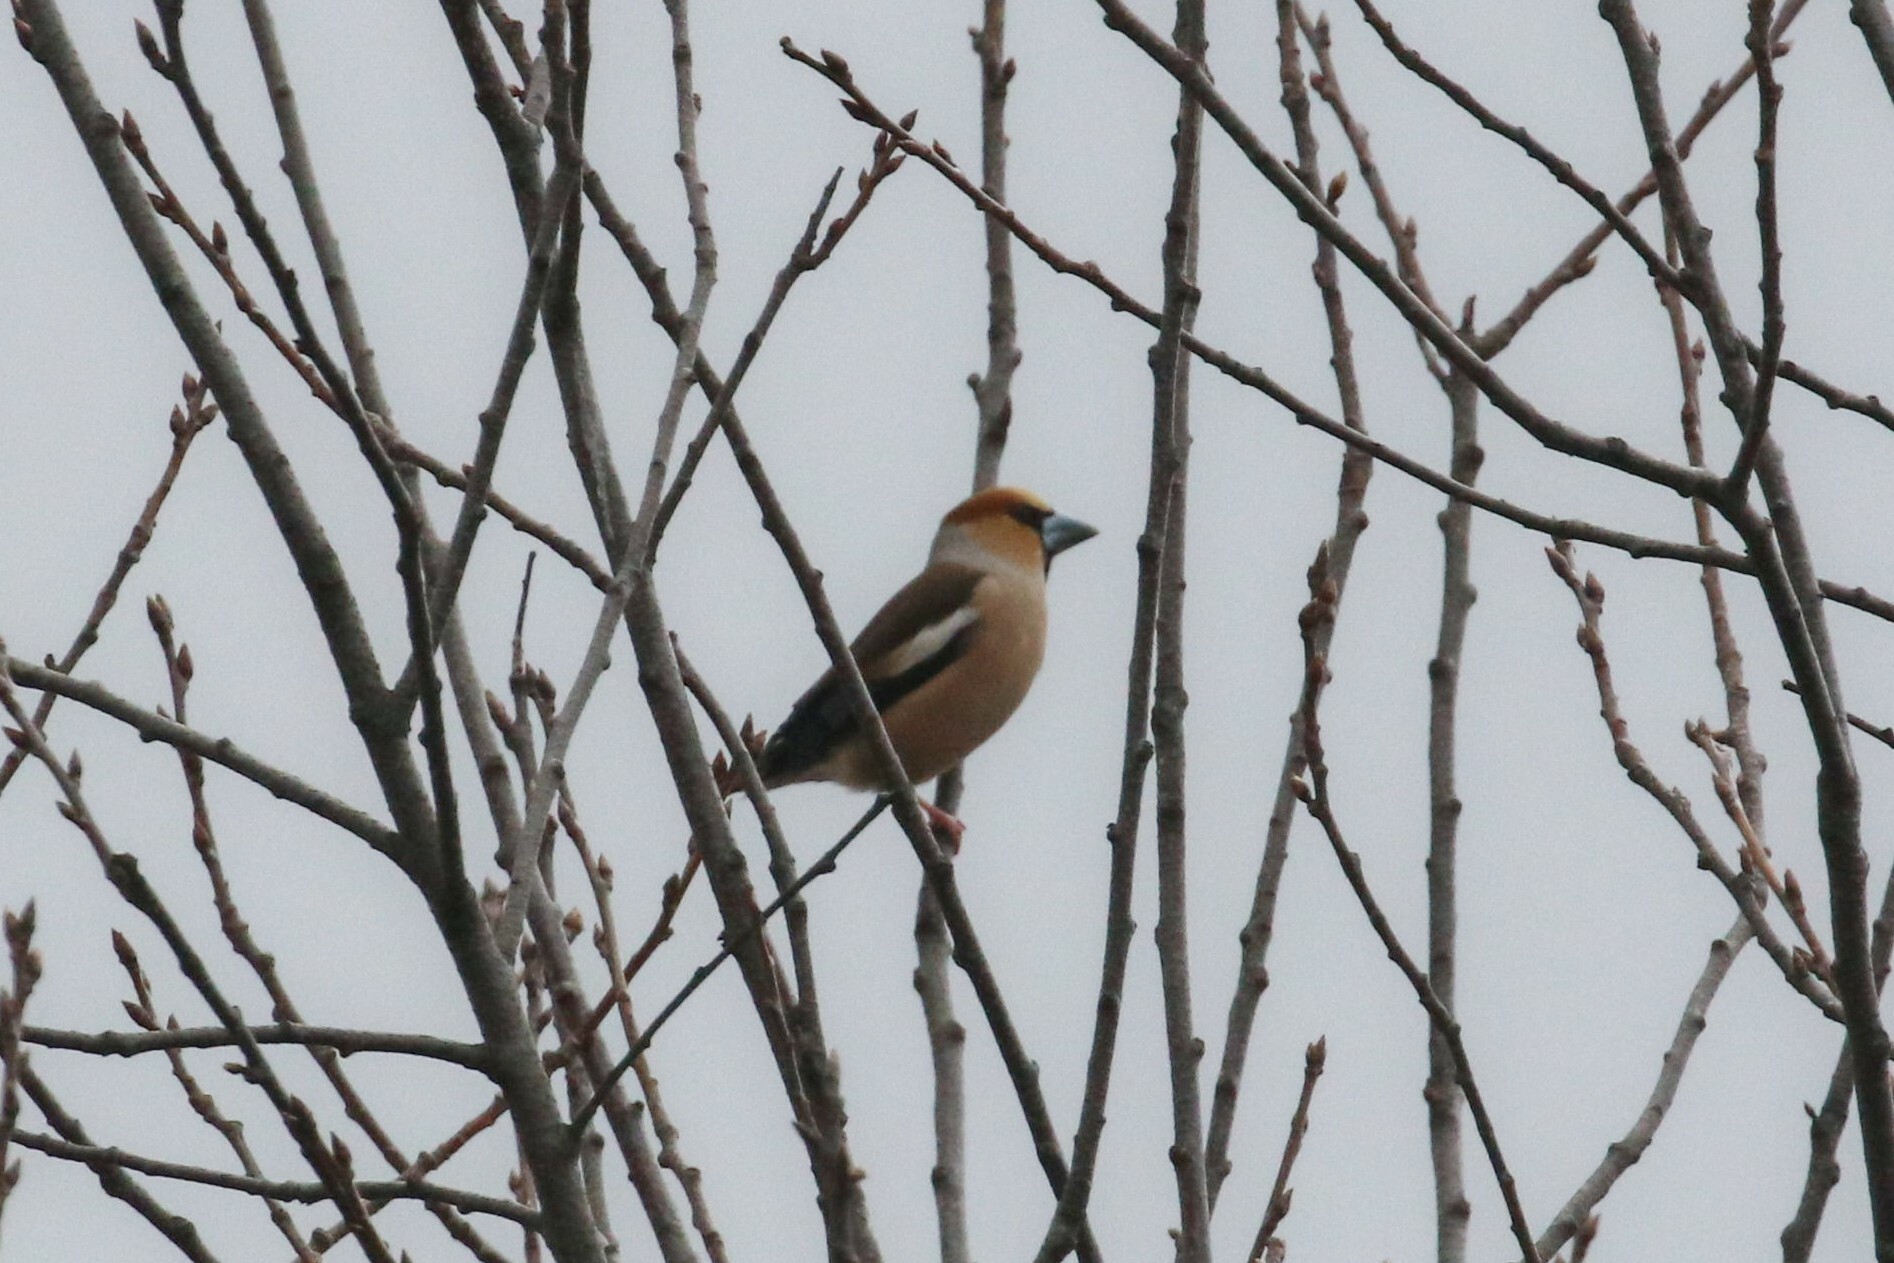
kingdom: Animalia
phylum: Chordata
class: Aves
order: Passeriformes
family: Fringillidae
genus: Coccothraustes
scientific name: Coccothraustes coccothraustes
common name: Hawfinch
